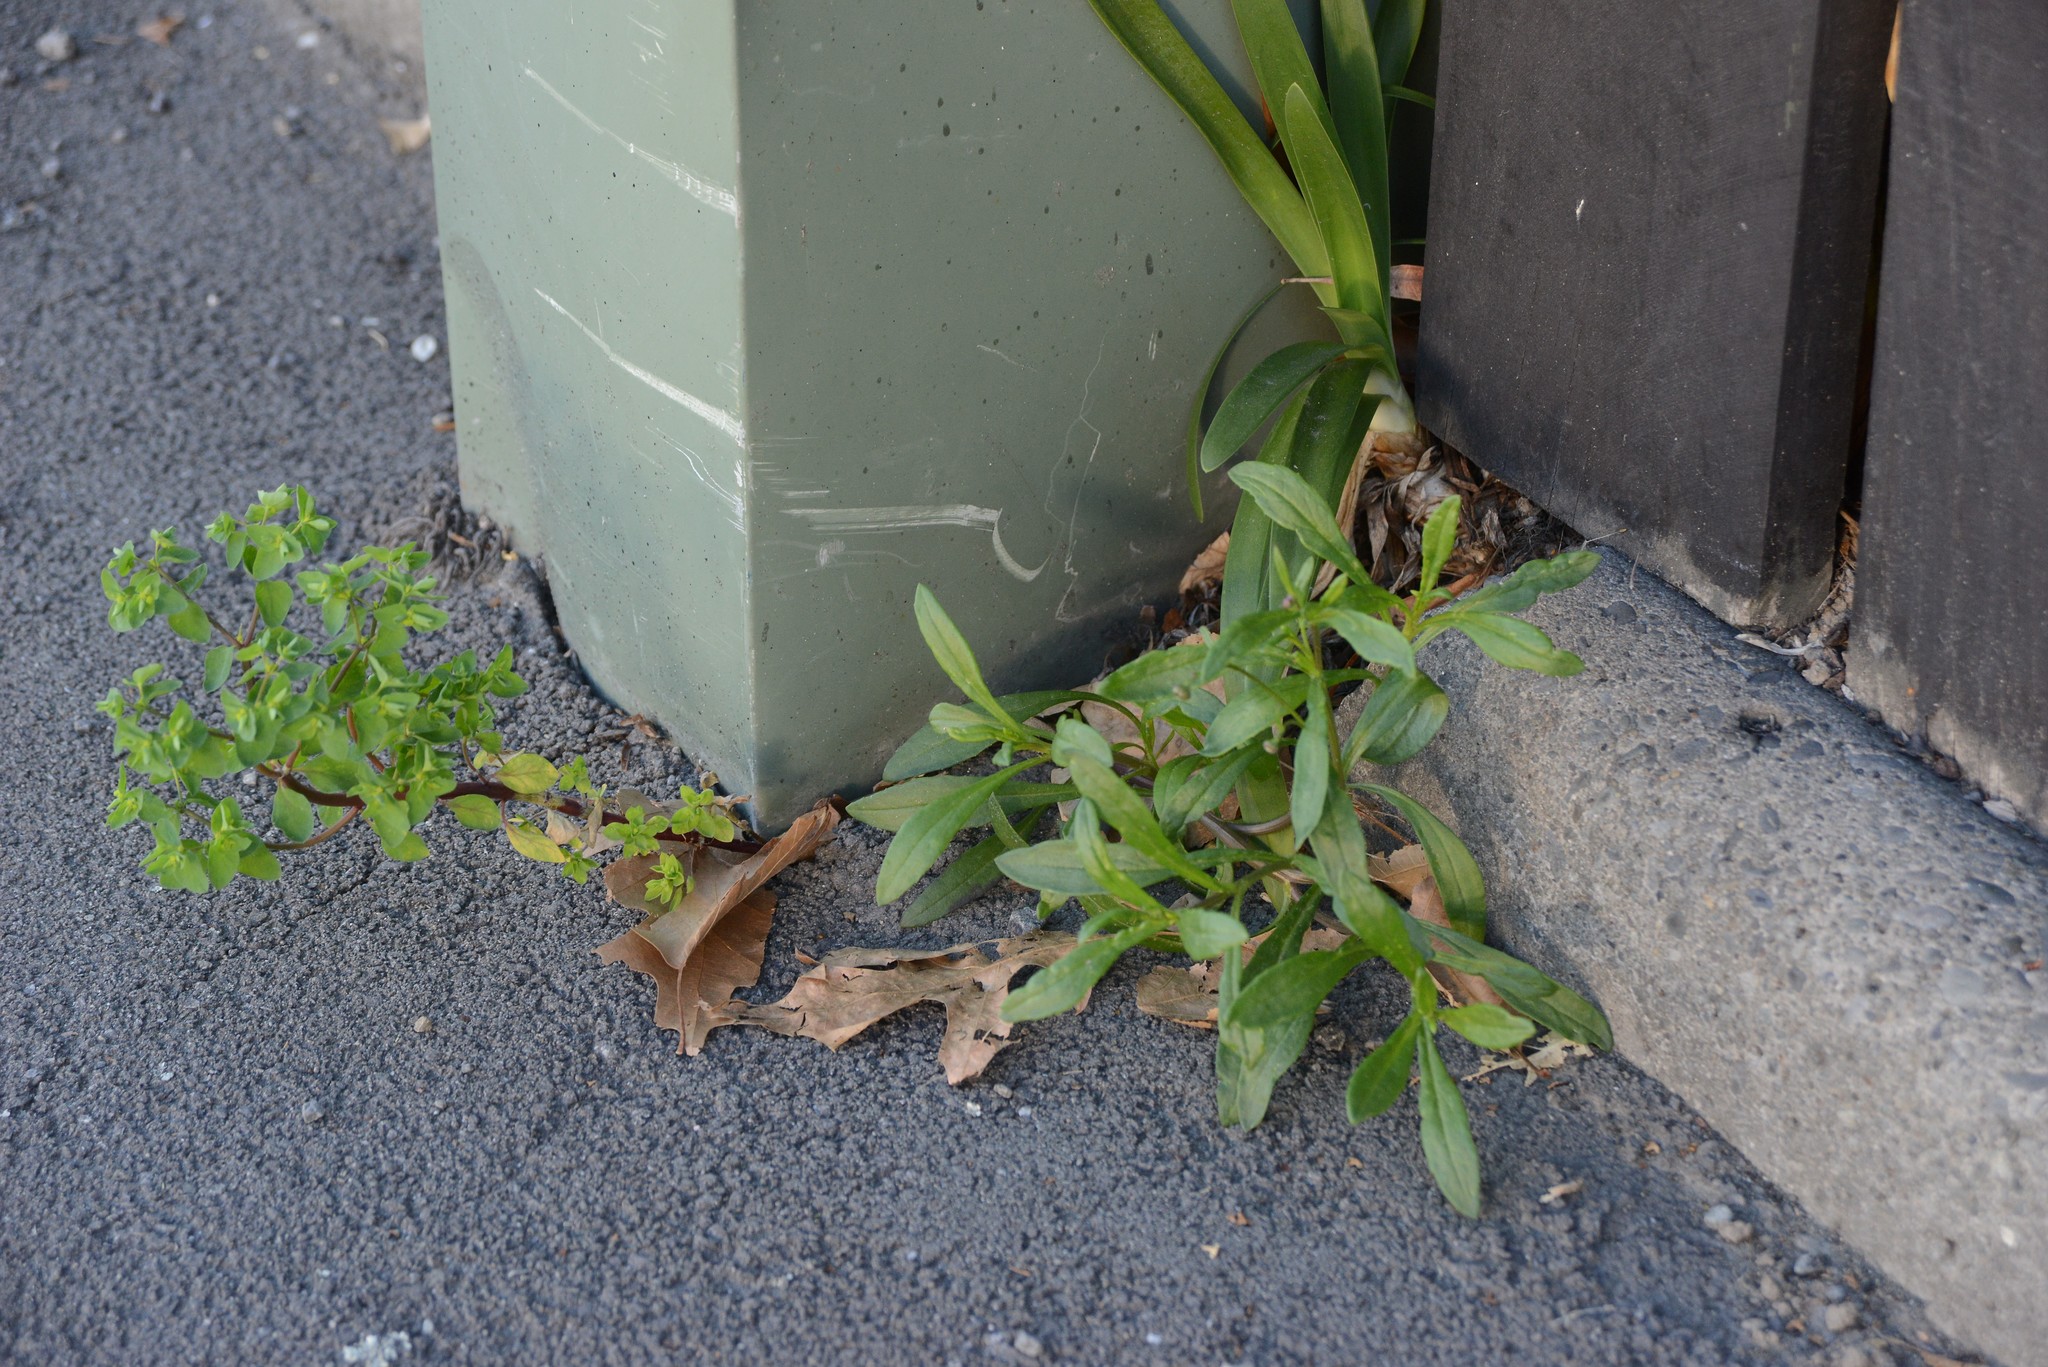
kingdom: Plantae
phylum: Tracheophyta
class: Magnoliopsida
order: Asterales
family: Asteraceae
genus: Senecio
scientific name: Senecio skirrhodon
